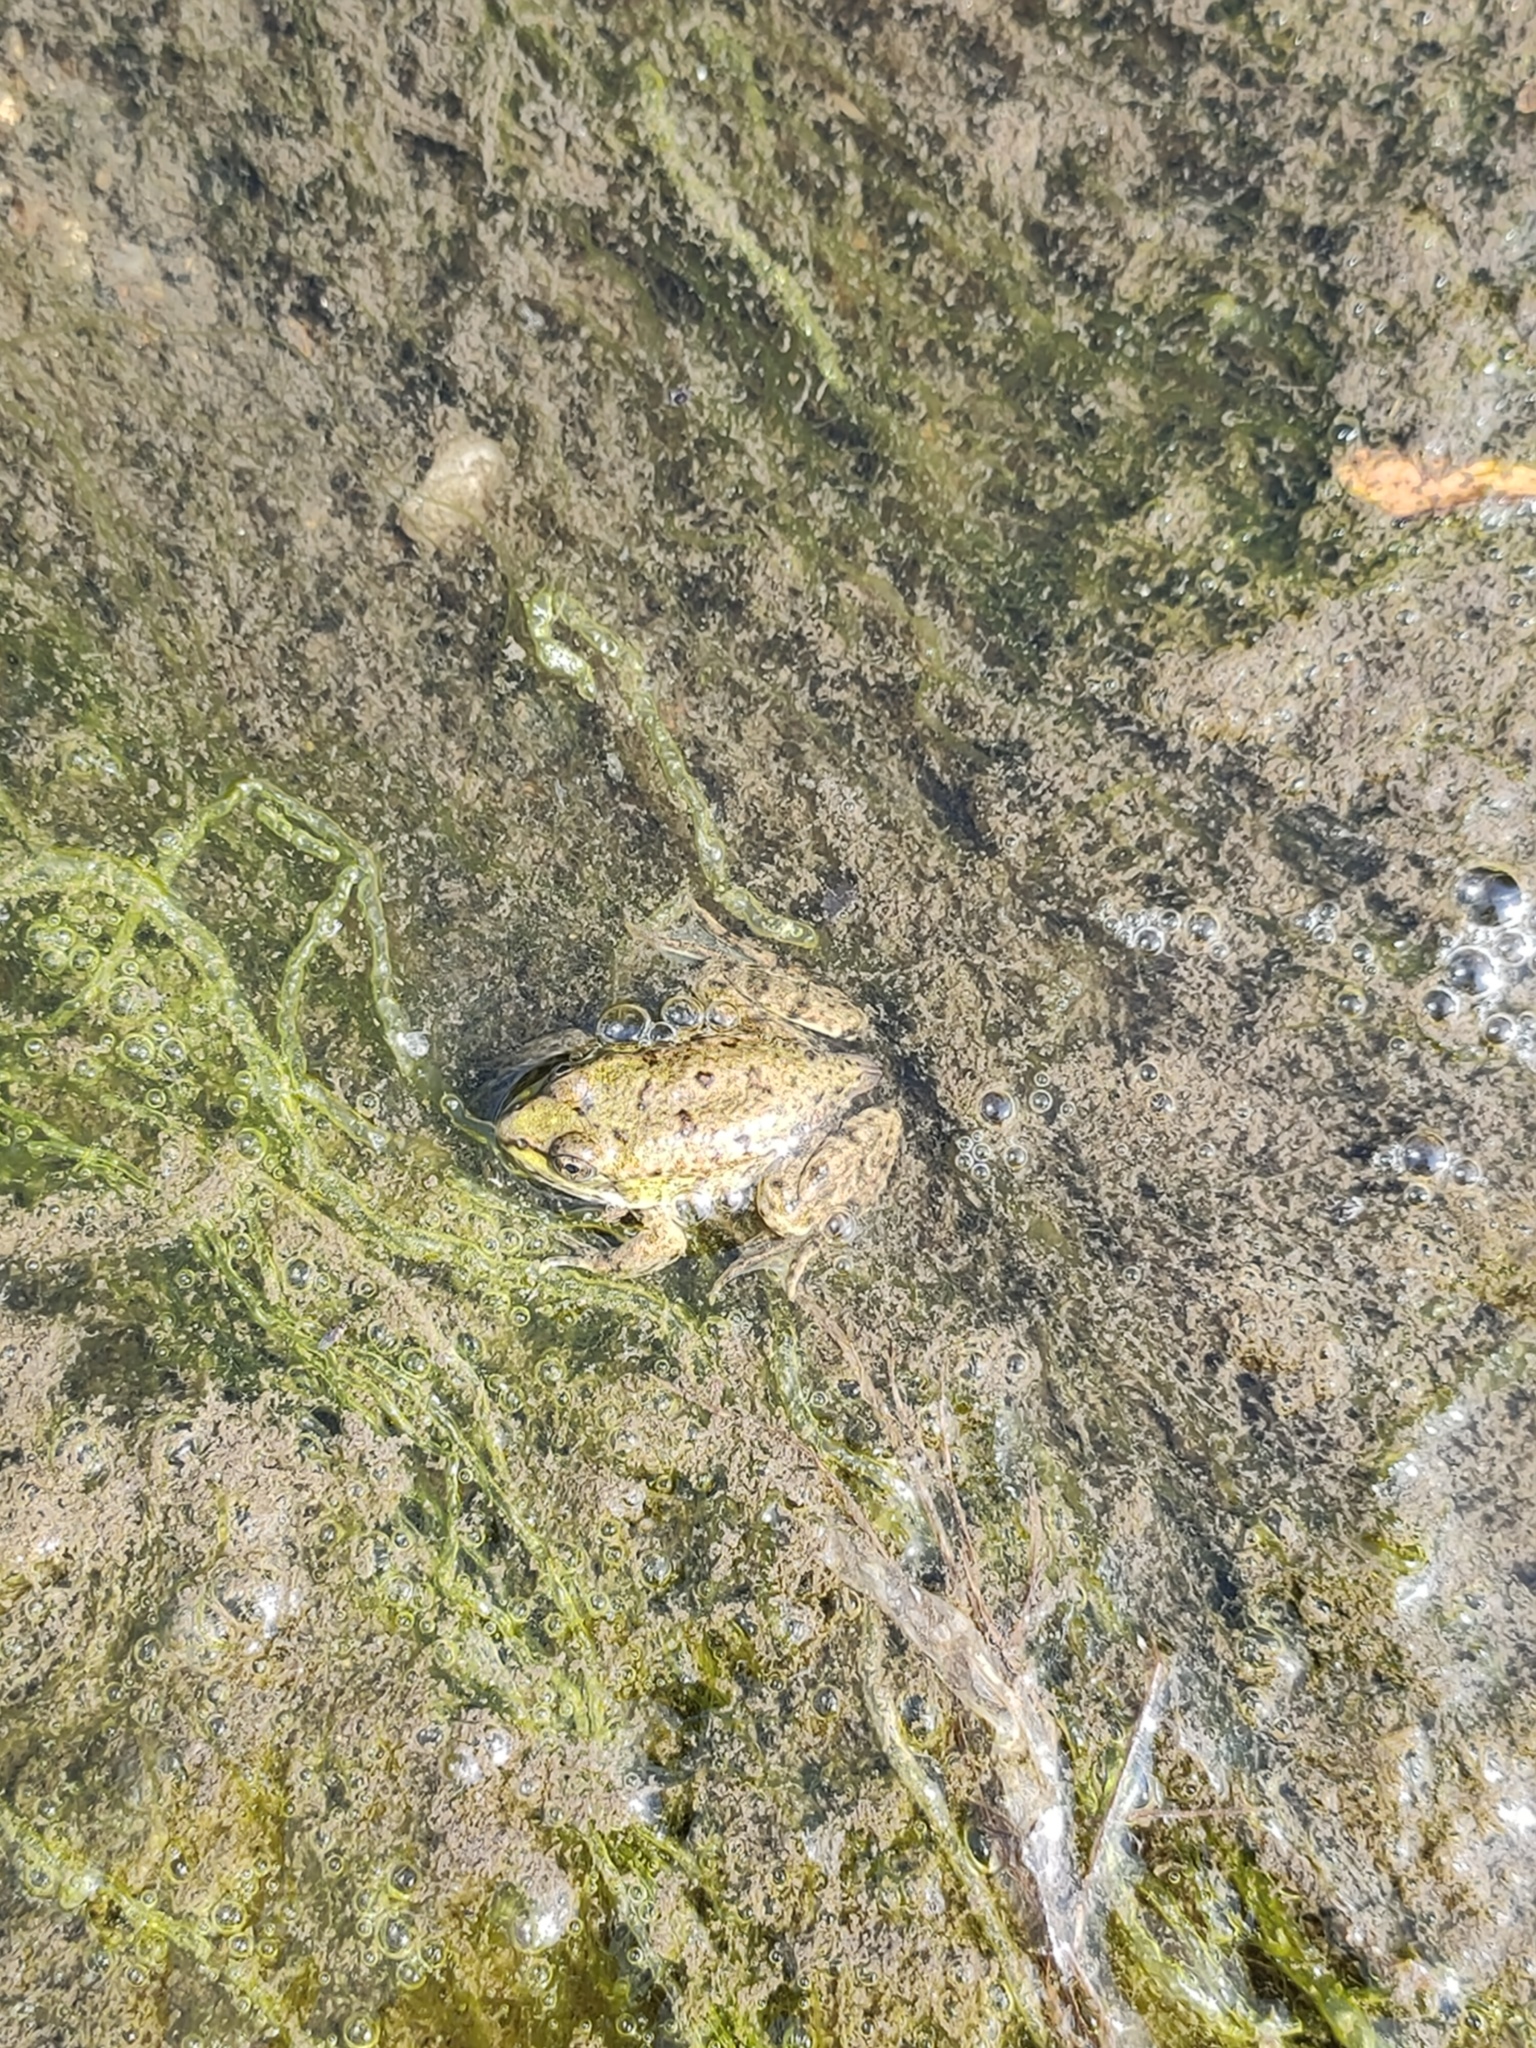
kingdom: Animalia
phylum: Chordata
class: Amphibia
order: Anura
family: Ranidae
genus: Pelophylax
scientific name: Pelophylax ridibundus
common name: Marsh frog
